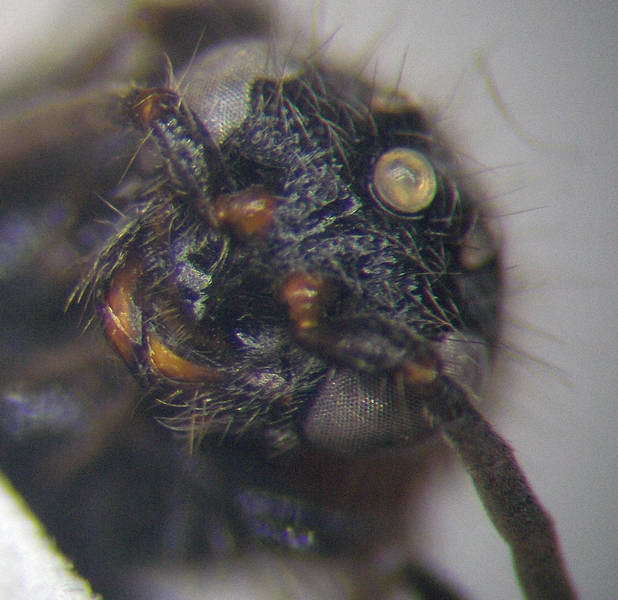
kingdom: Animalia
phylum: Arthropoda
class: Insecta
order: Hymenoptera
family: Mutillidae
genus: Physetopoda
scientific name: Physetopoda halensis
